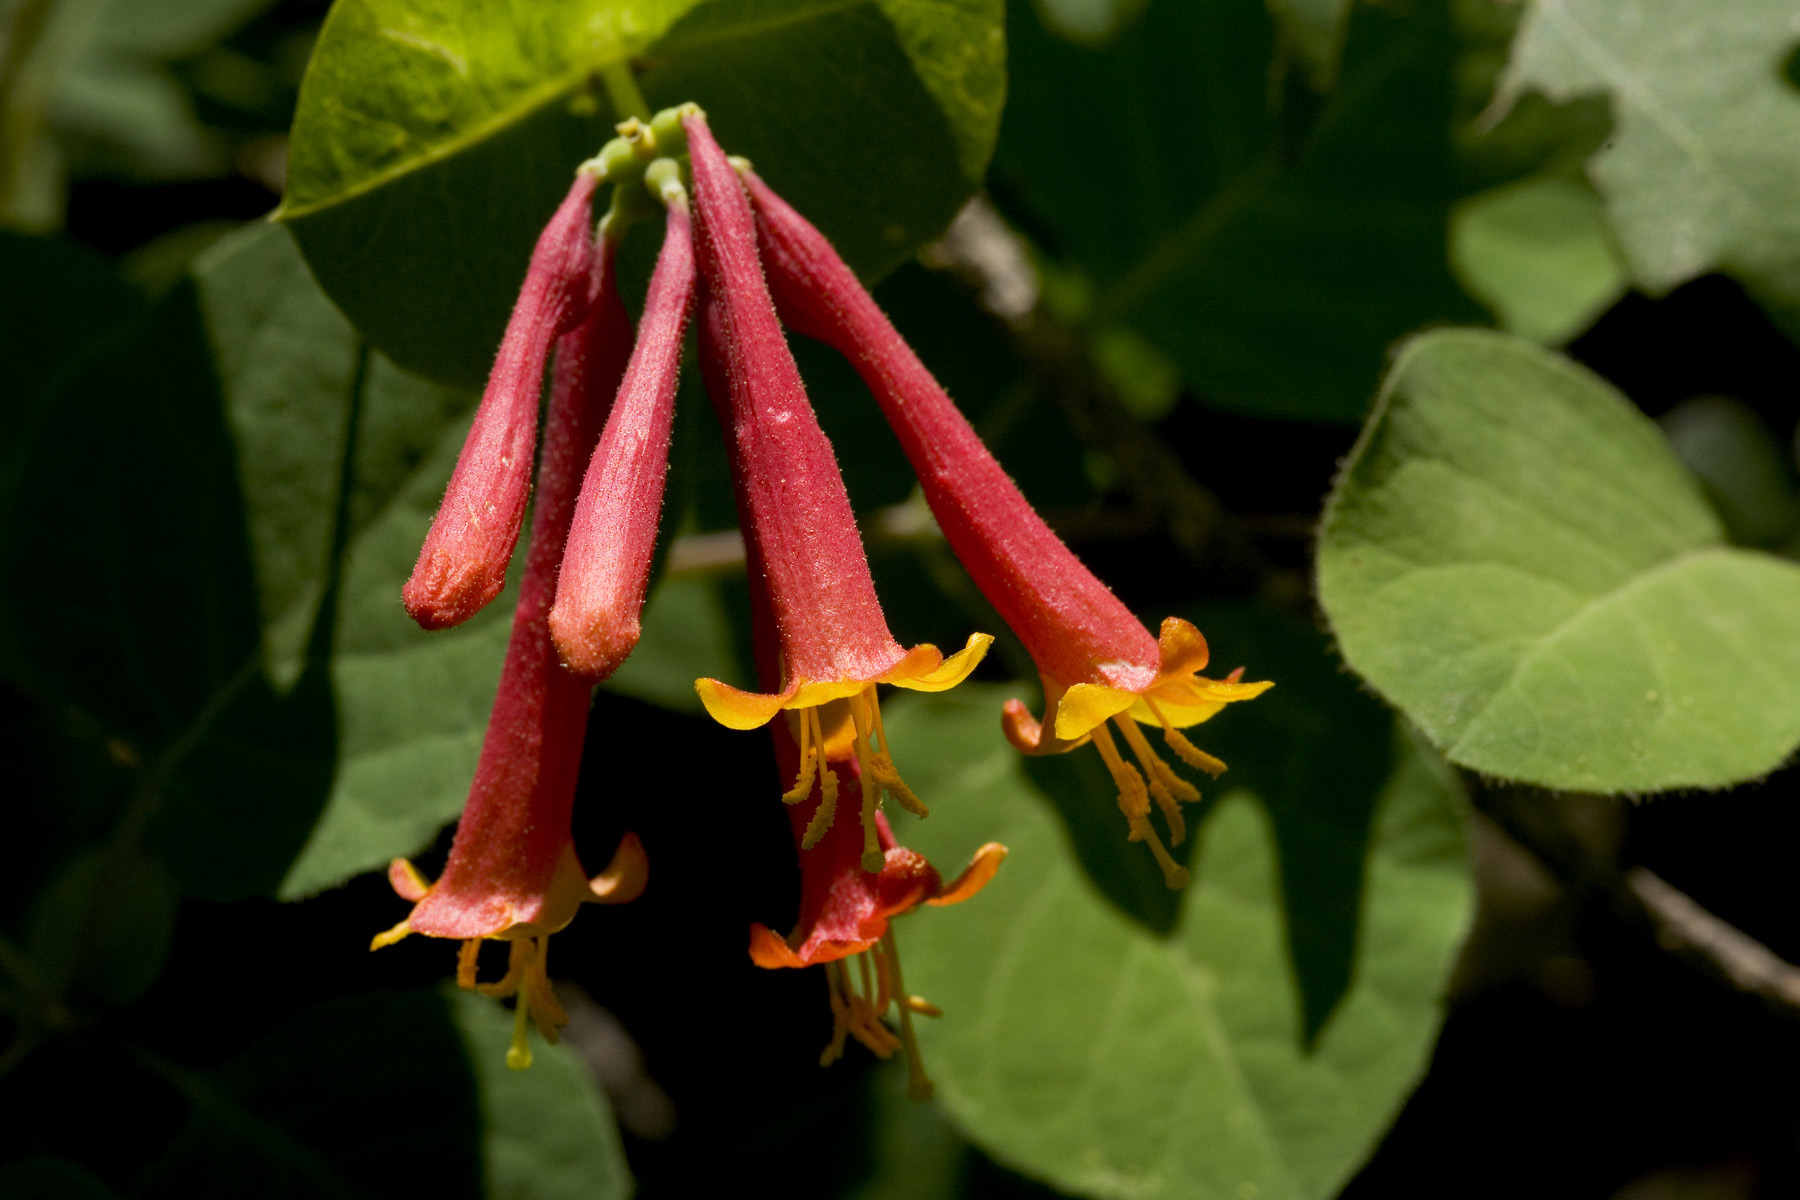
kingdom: Plantae
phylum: Tracheophyta
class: Magnoliopsida
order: Dipsacales
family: Caprifoliaceae
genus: Lonicera
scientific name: Lonicera arizonica
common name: Arizona honeysuckle
